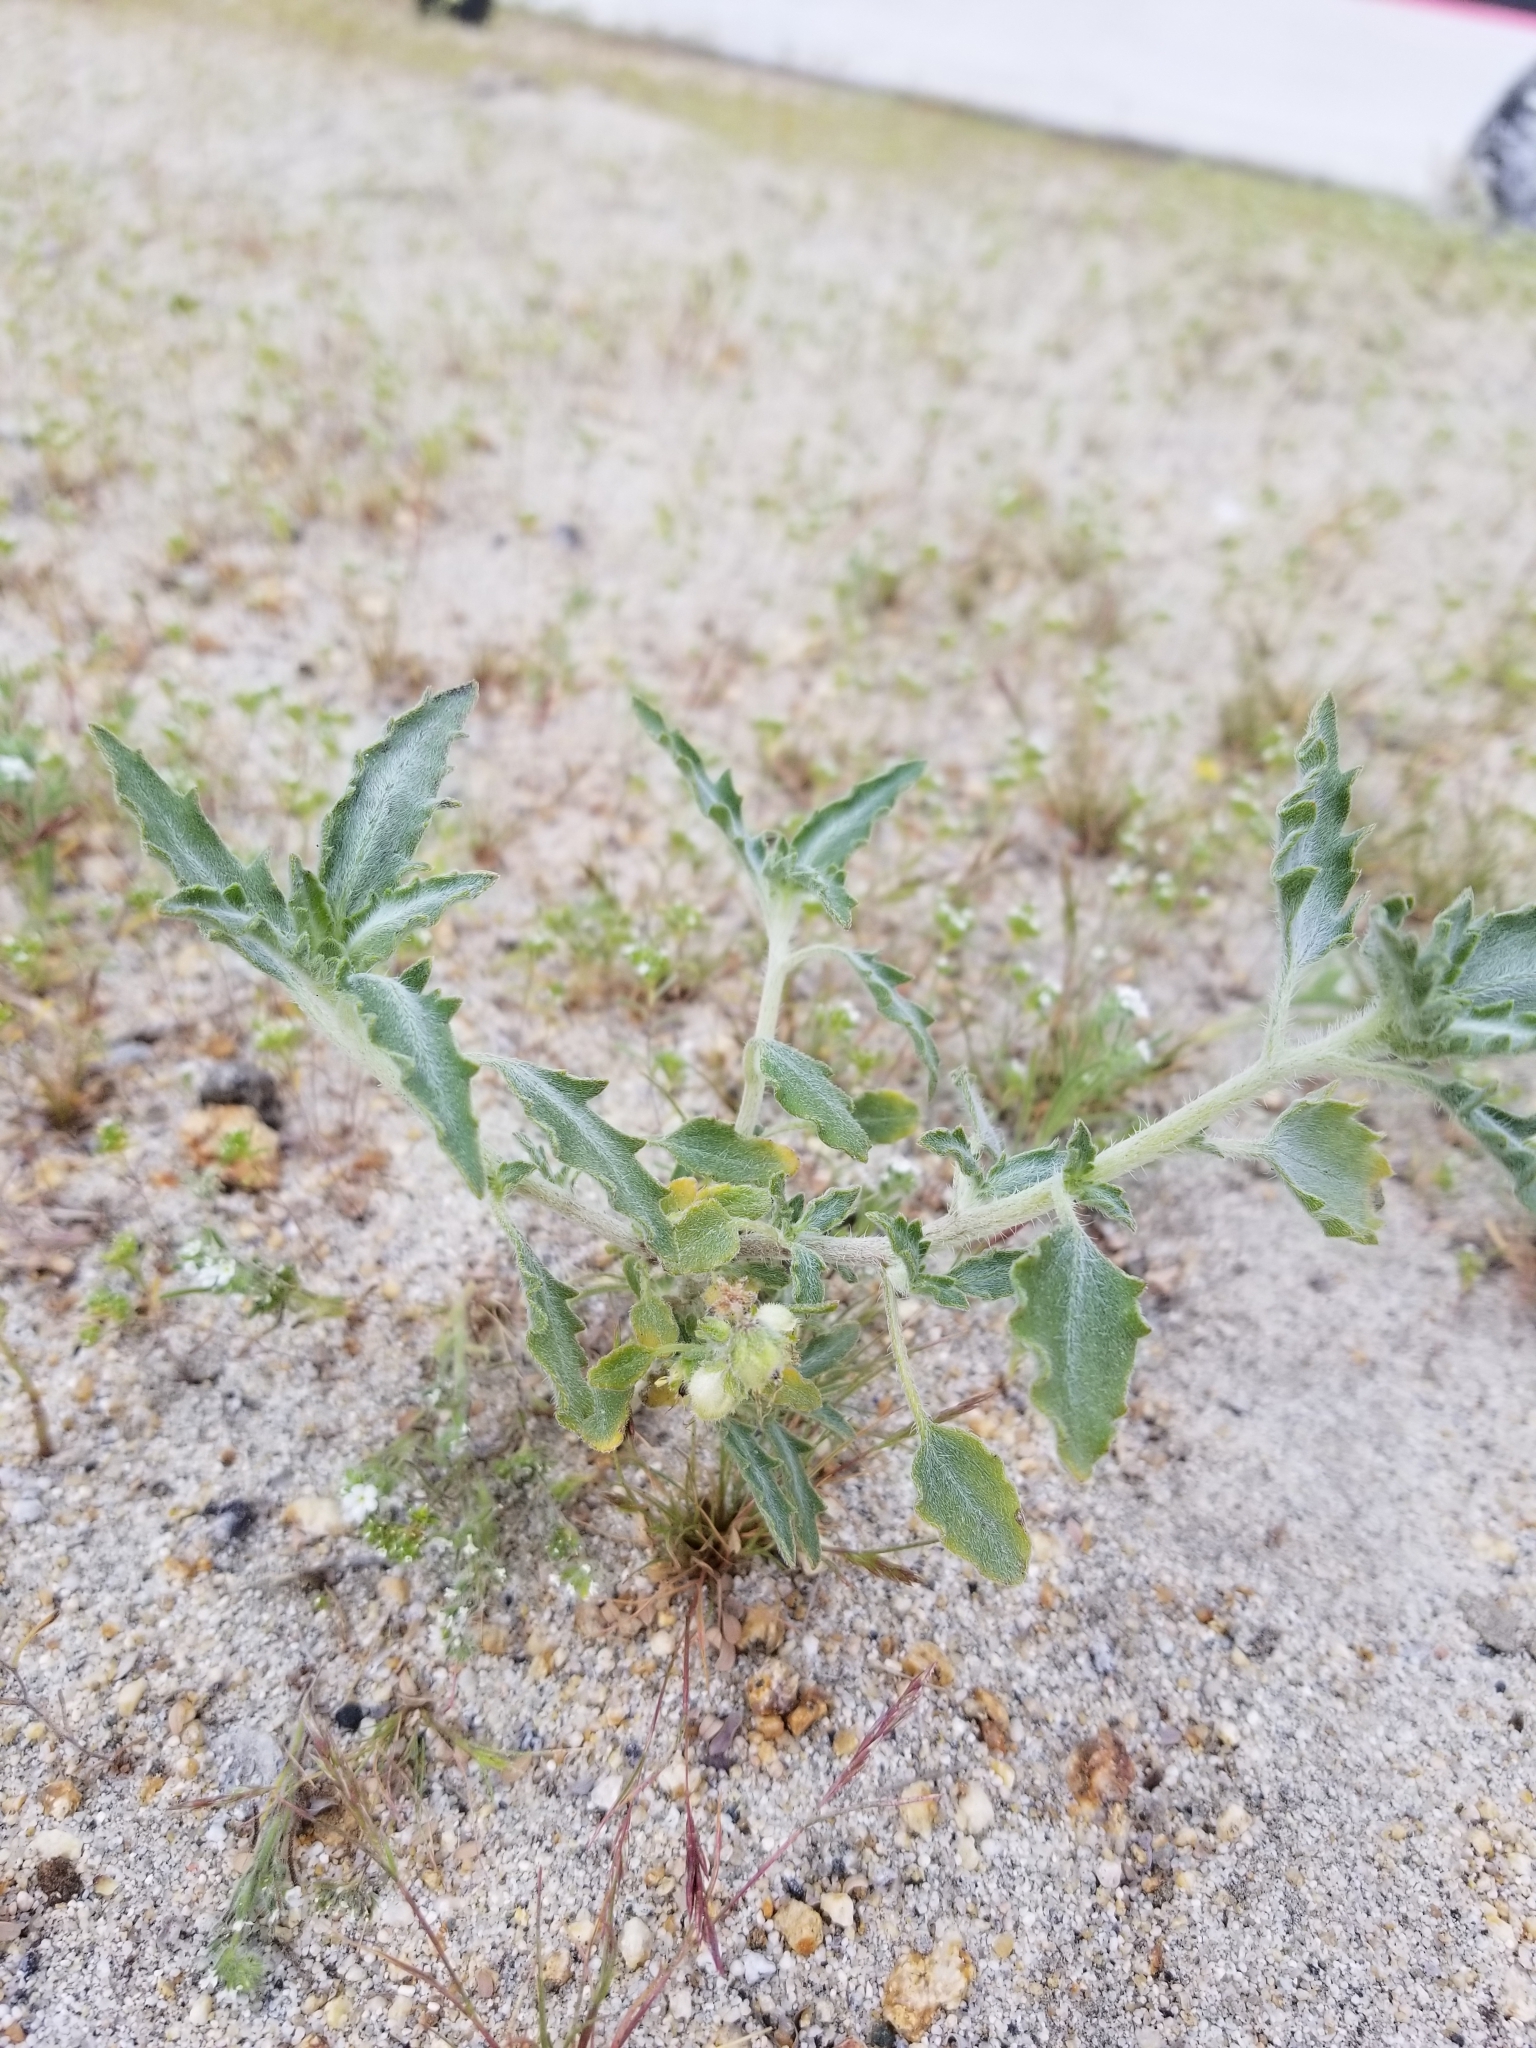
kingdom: Plantae
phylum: Tracheophyta
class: Magnoliopsida
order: Asterales
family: Asteraceae
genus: Dicoria
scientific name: Dicoria canescens
